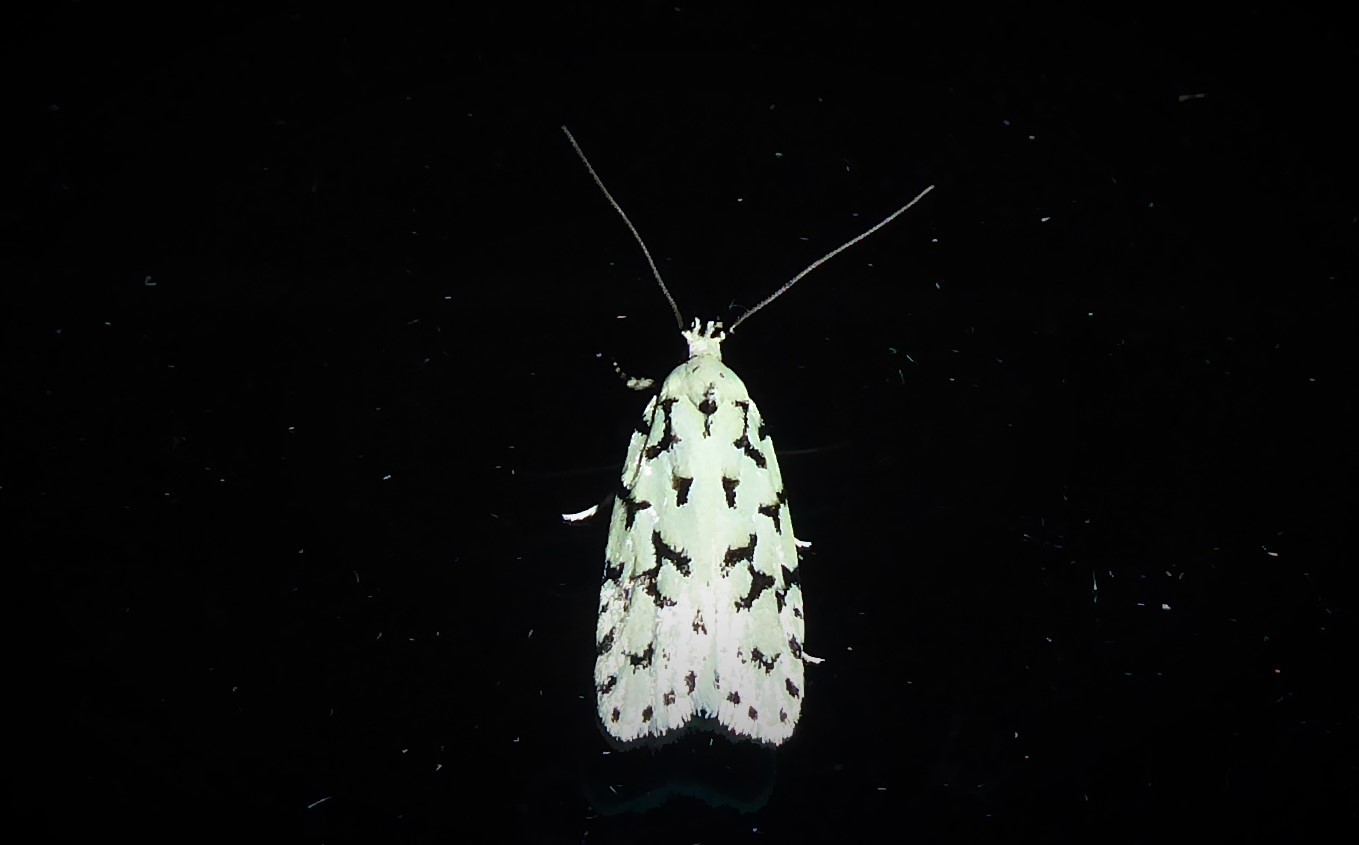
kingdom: Animalia
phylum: Arthropoda
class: Insecta
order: Lepidoptera
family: Oecophoridae
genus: Izatha
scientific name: Izatha huttoni
